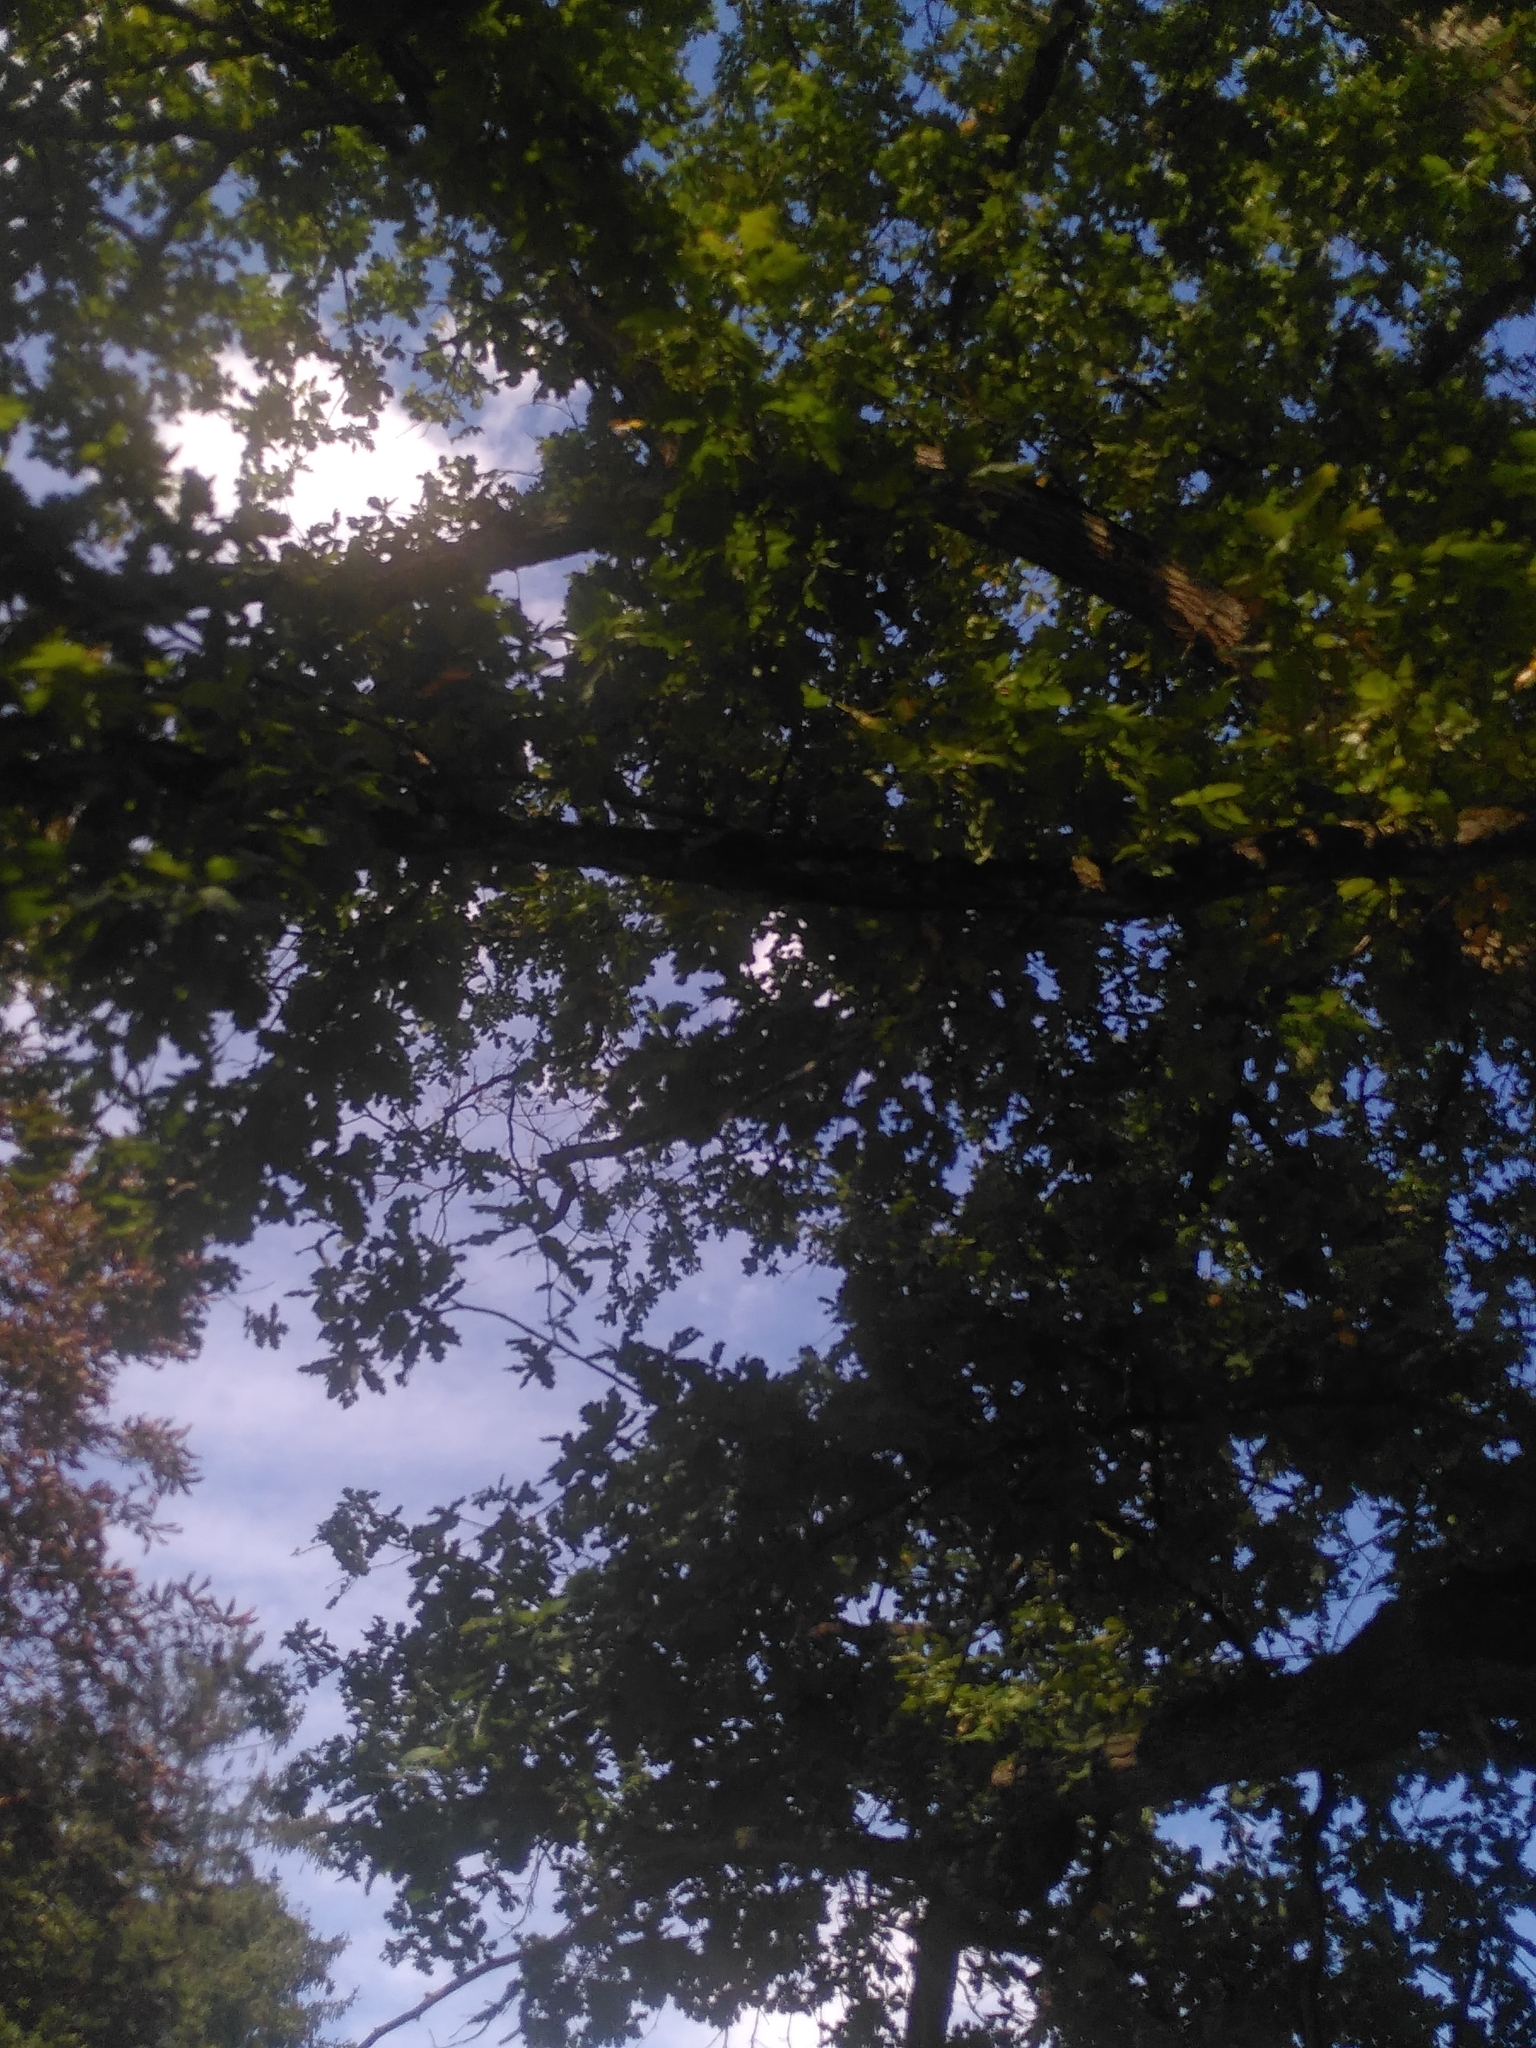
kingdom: Plantae
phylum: Tracheophyta
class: Magnoliopsida
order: Fagales
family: Fagaceae
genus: Quercus
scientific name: Quercus robur
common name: Pedunculate oak
